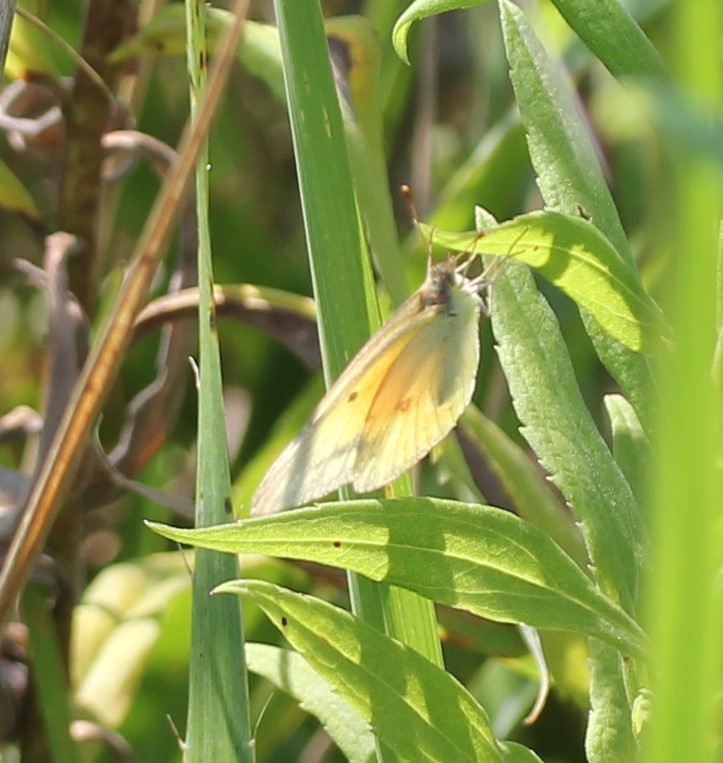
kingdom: Animalia
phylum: Arthropoda
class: Insecta
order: Lepidoptera
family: Pieridae
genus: Colias
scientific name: Colias eurytheme
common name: Alfalfa butterfly
